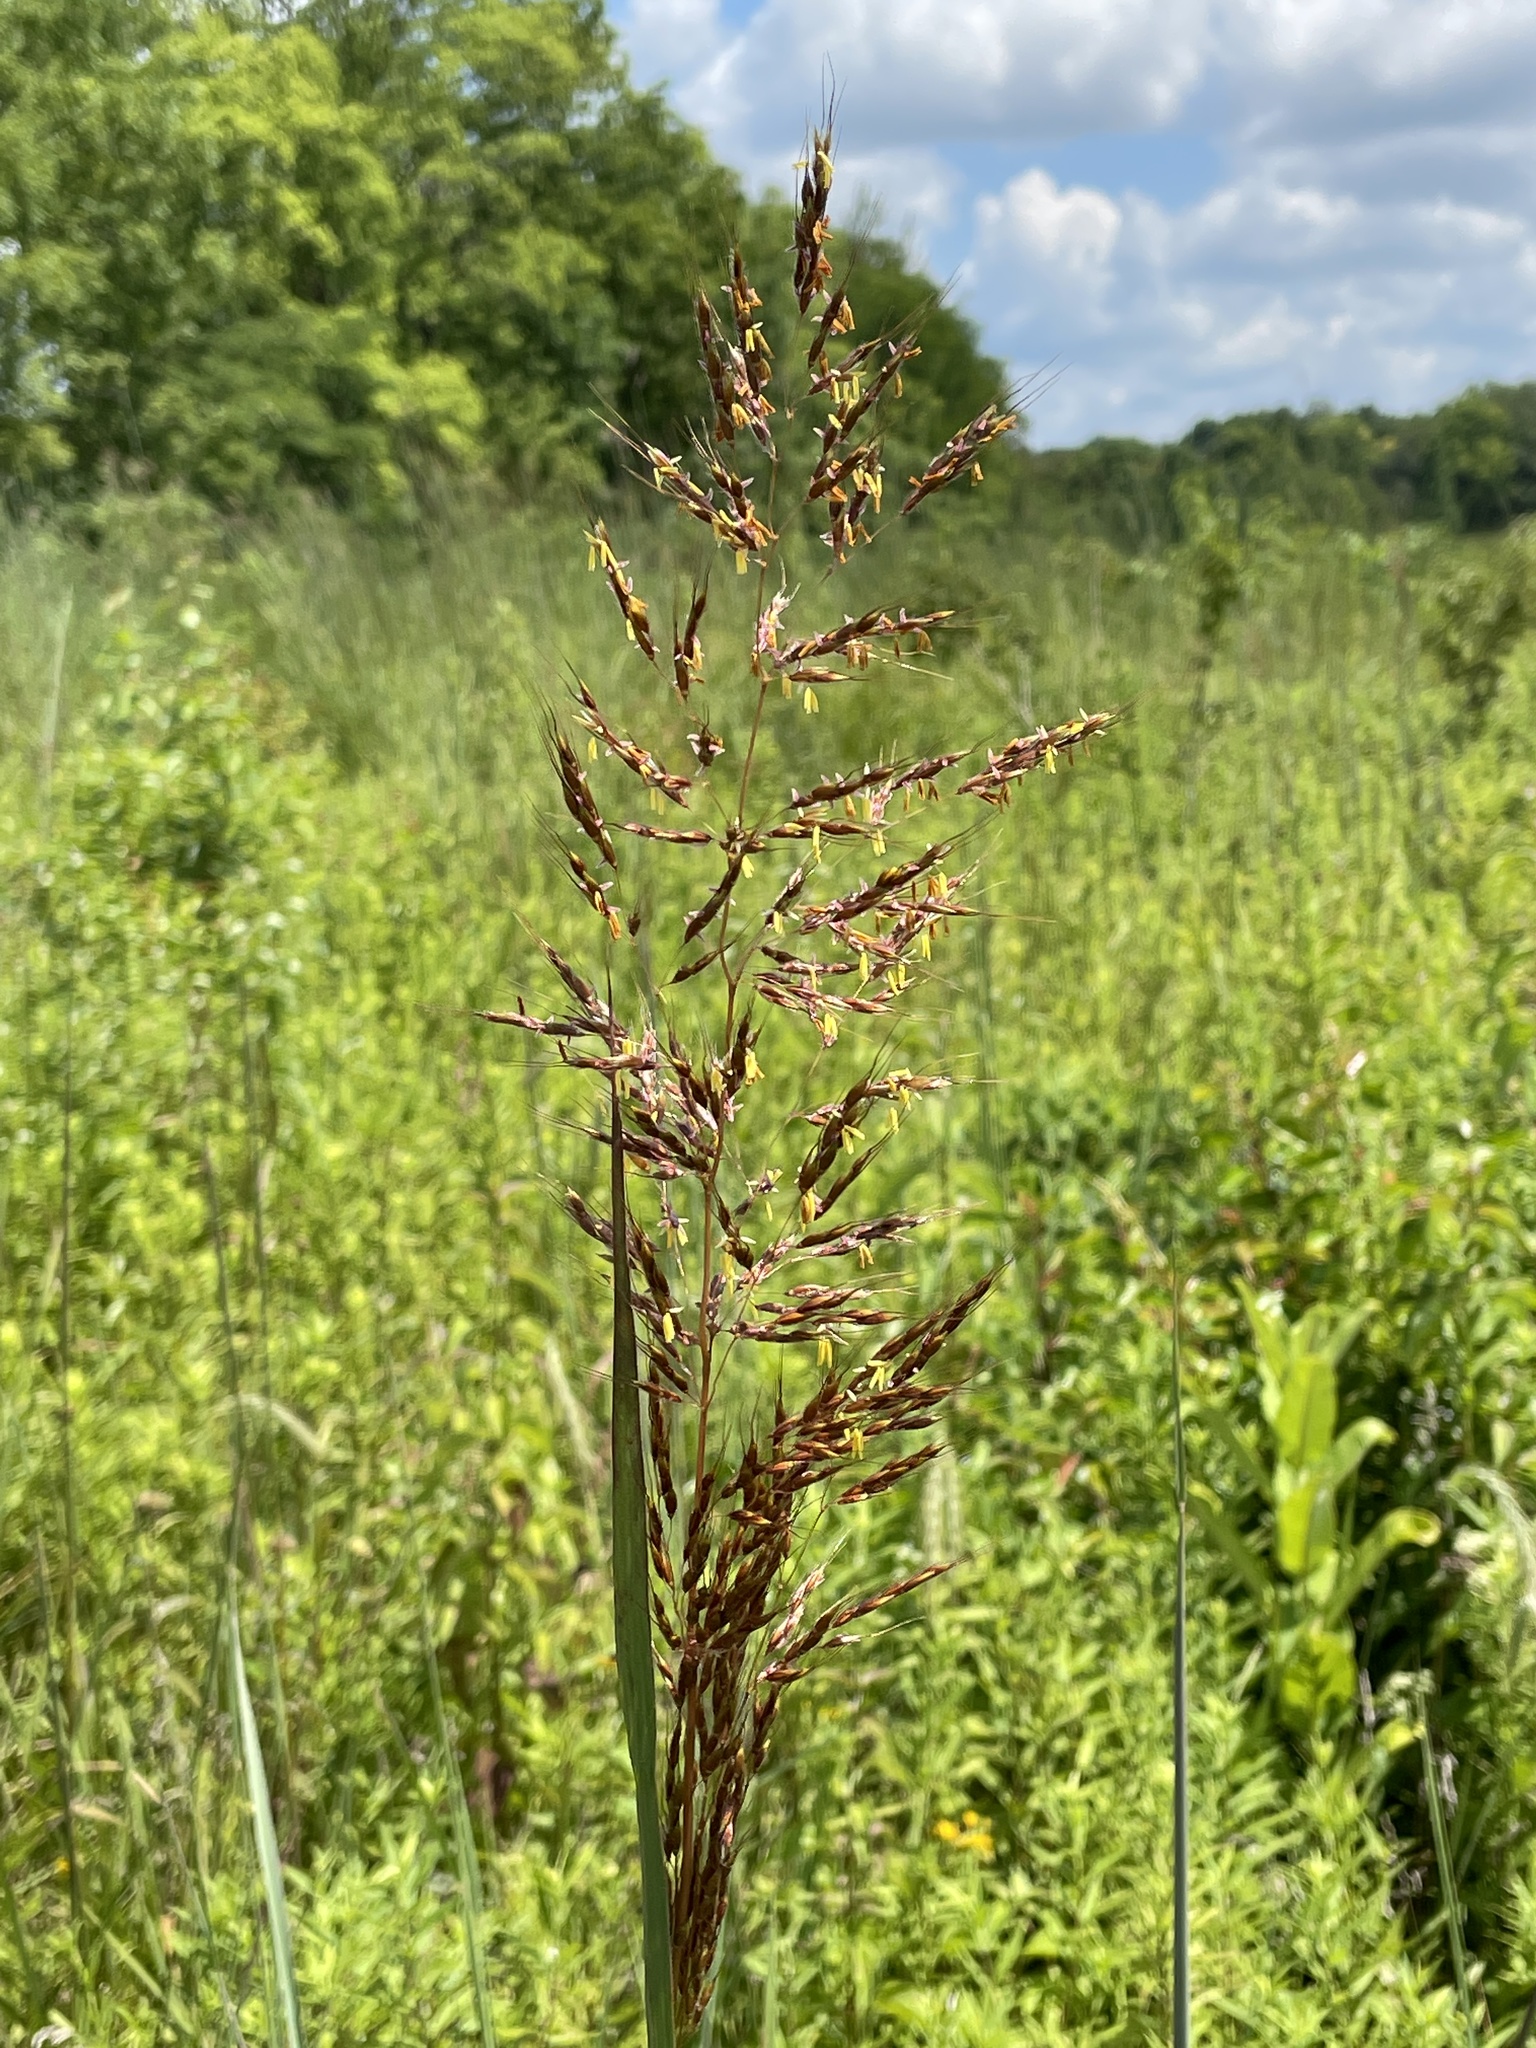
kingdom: Plantae
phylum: Tracheophyta
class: Liliopsida
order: Poales
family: Poaceae
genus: Sorghastrum
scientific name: Sorghastrum nutans
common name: Indian grass
